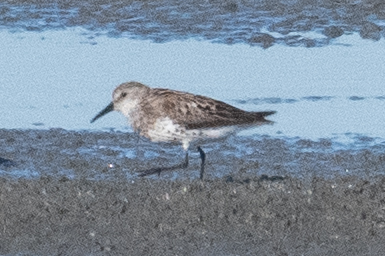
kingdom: Animalia
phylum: Chordata
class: Aves
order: Charadriiformes
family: Scolopacidae
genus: Calidris
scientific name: Calidris mauri
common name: Western sandpiper
